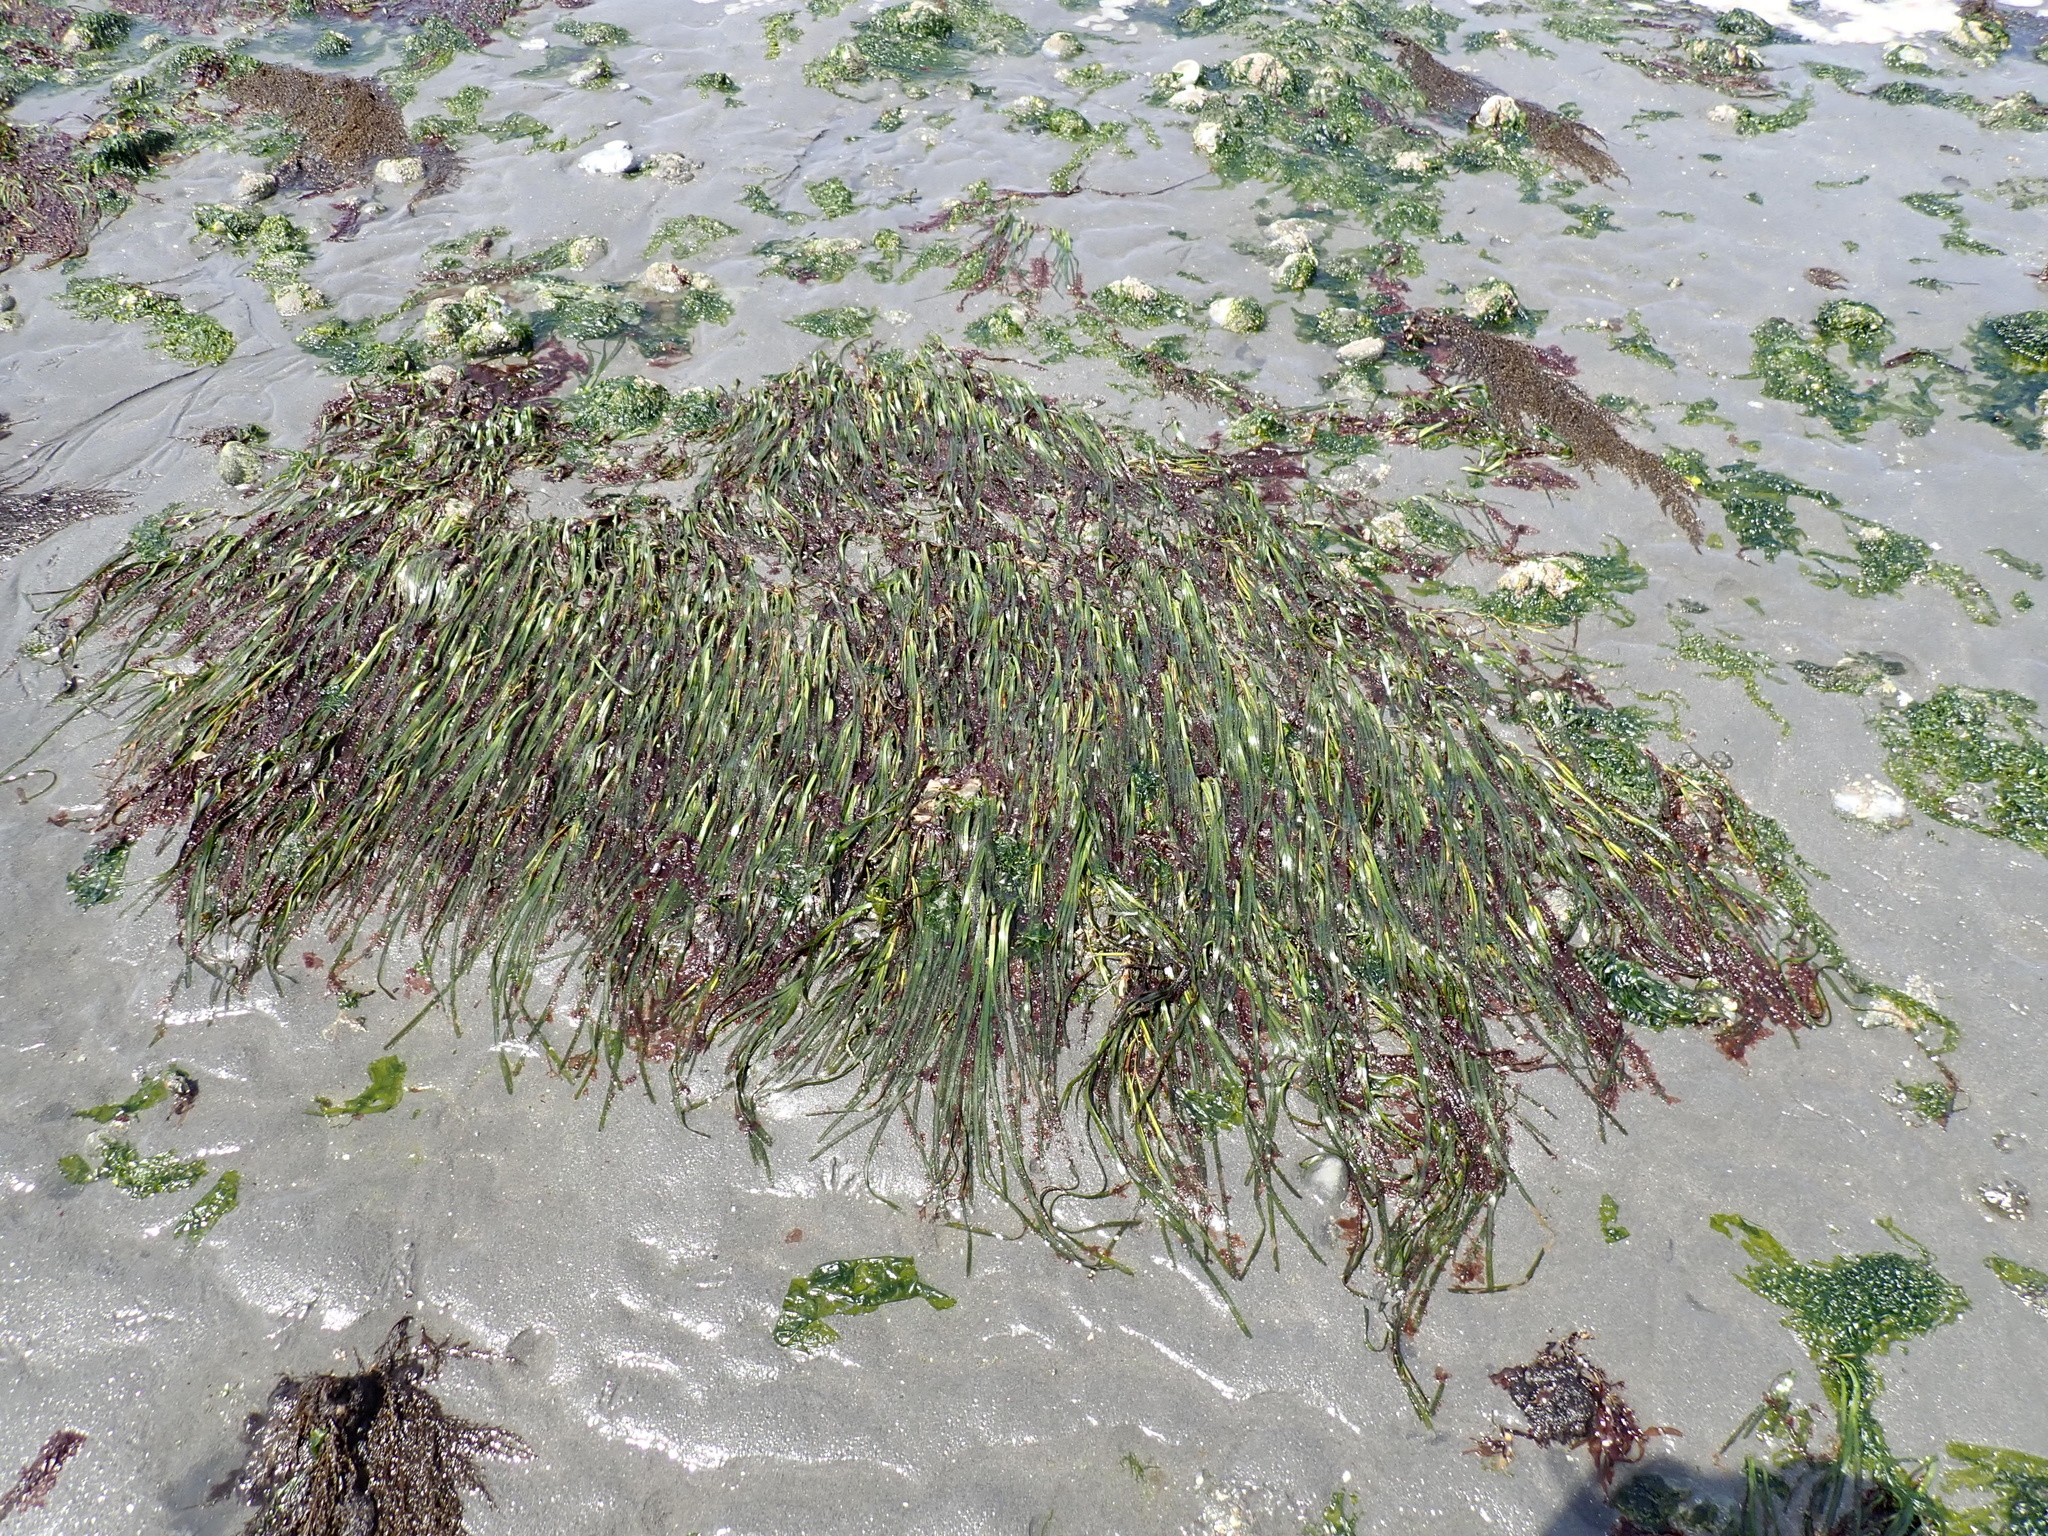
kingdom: Plantae
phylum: Tracheophyta
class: Liliopsida
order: Alismatales
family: Zosteraceae
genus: Zostera
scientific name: Zostera marina
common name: Eelgrass
